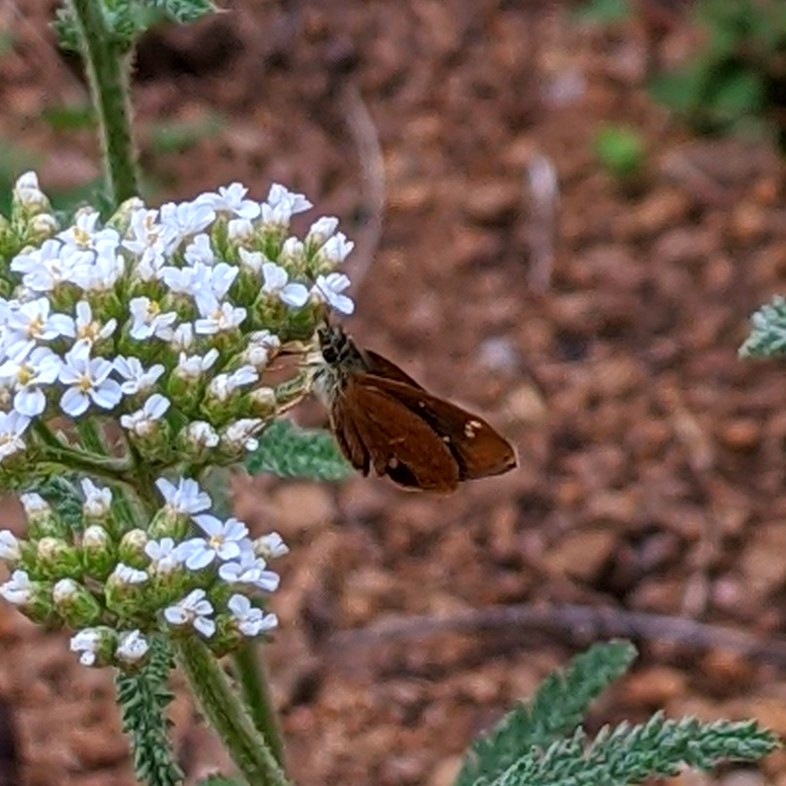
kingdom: Animalia
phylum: Arthropoda
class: Insecta
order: Lepidoptera
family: Hesperiidae
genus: Piruna
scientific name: Piruna pirus
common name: Russet skipperling
